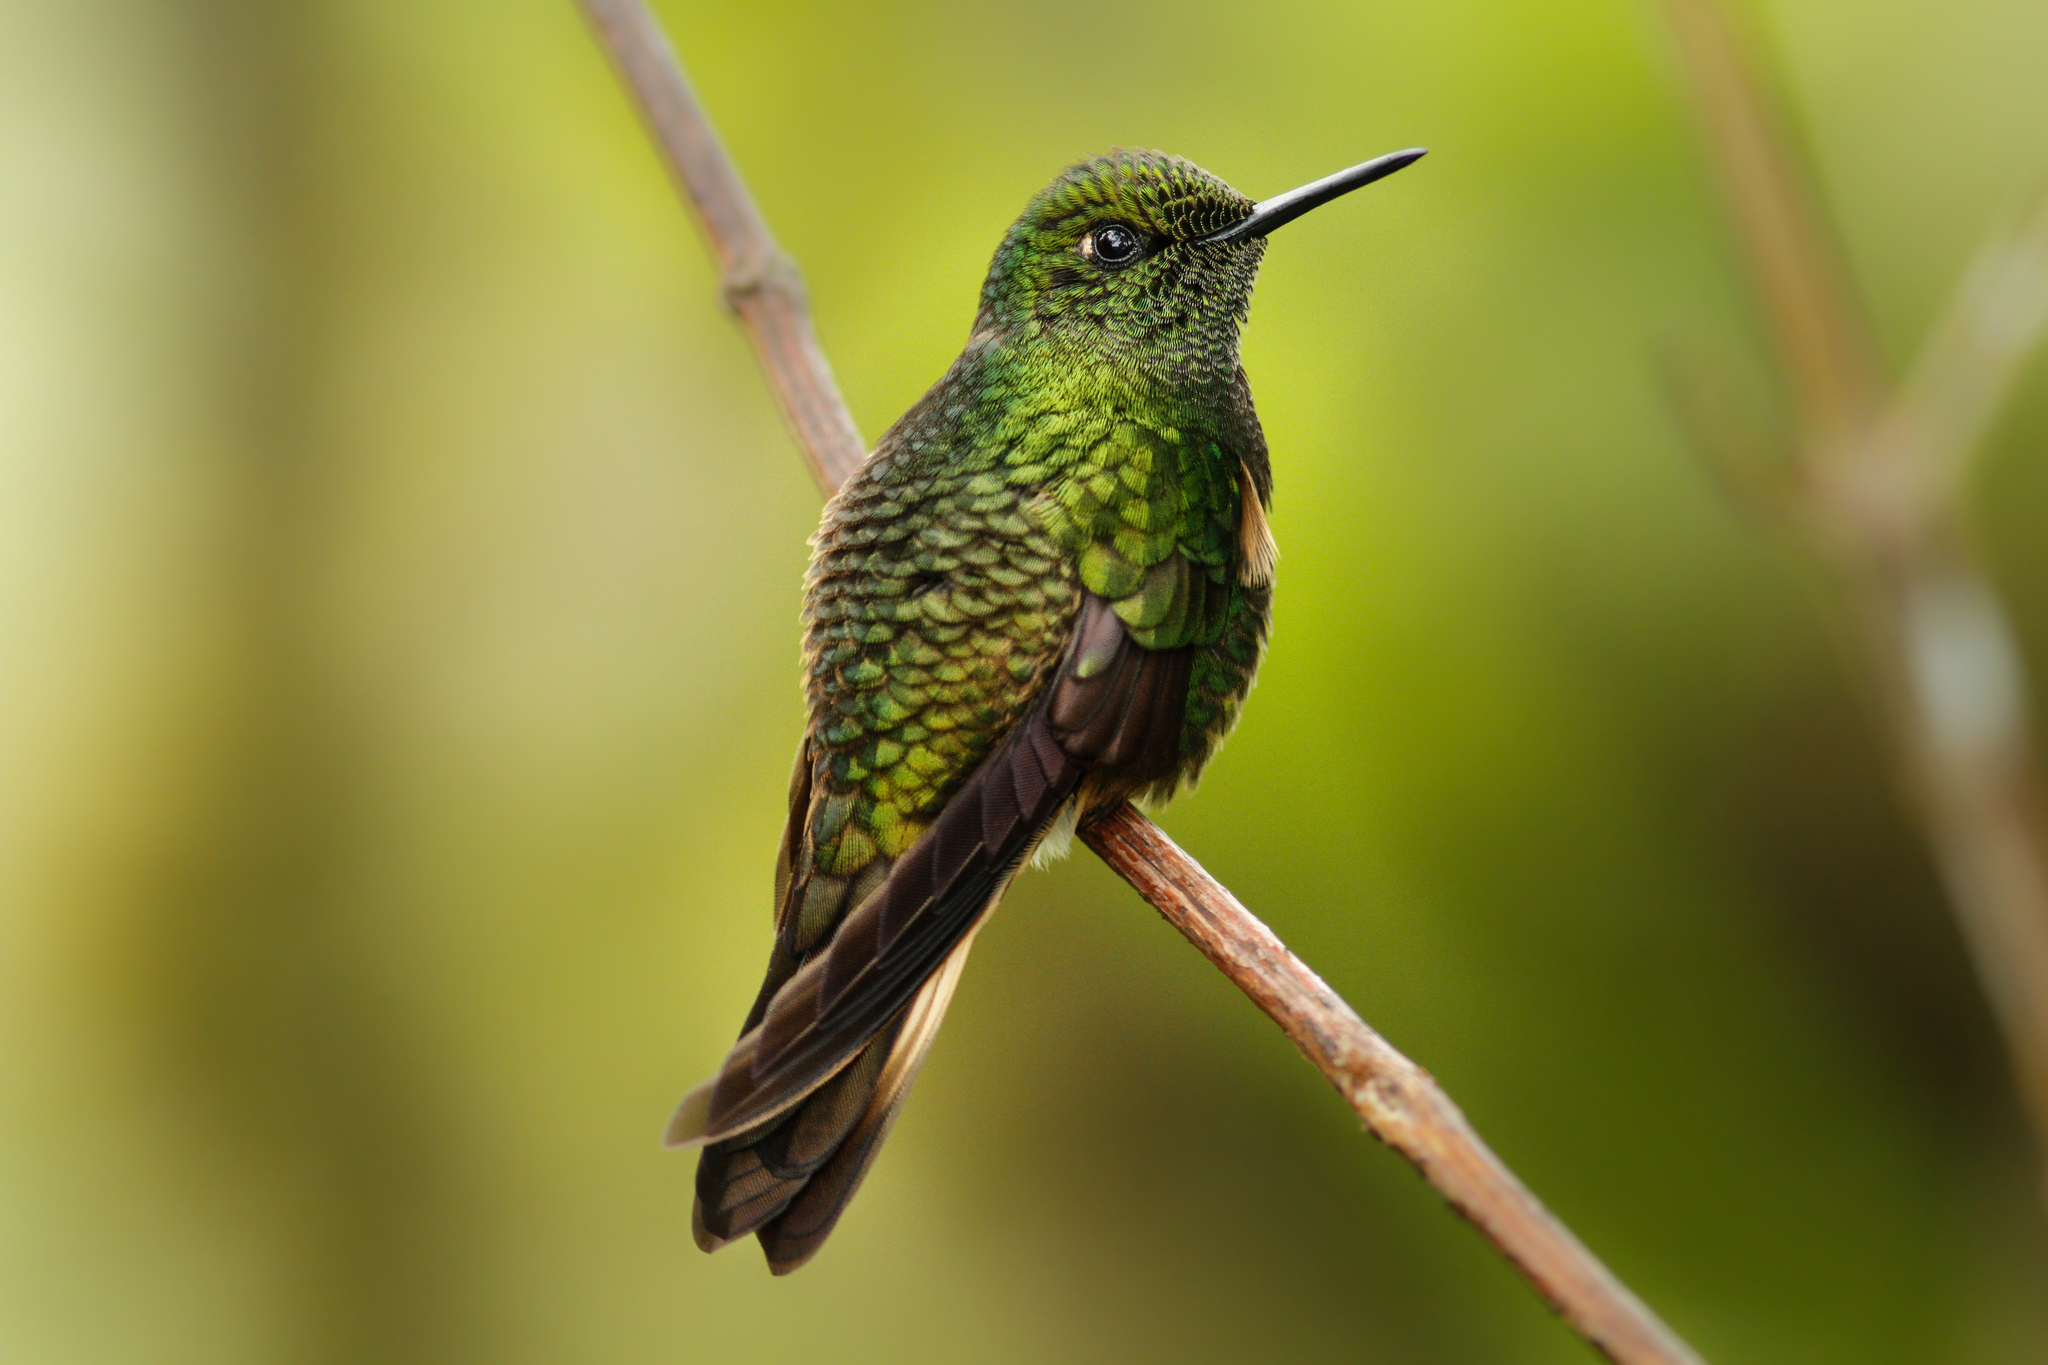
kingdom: Animalia
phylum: Chordata
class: Aves
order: Apodiformes
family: Trochilidae
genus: Boissonneaua
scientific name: Boissonneaua flavescens
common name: Buff-tailed coronet
